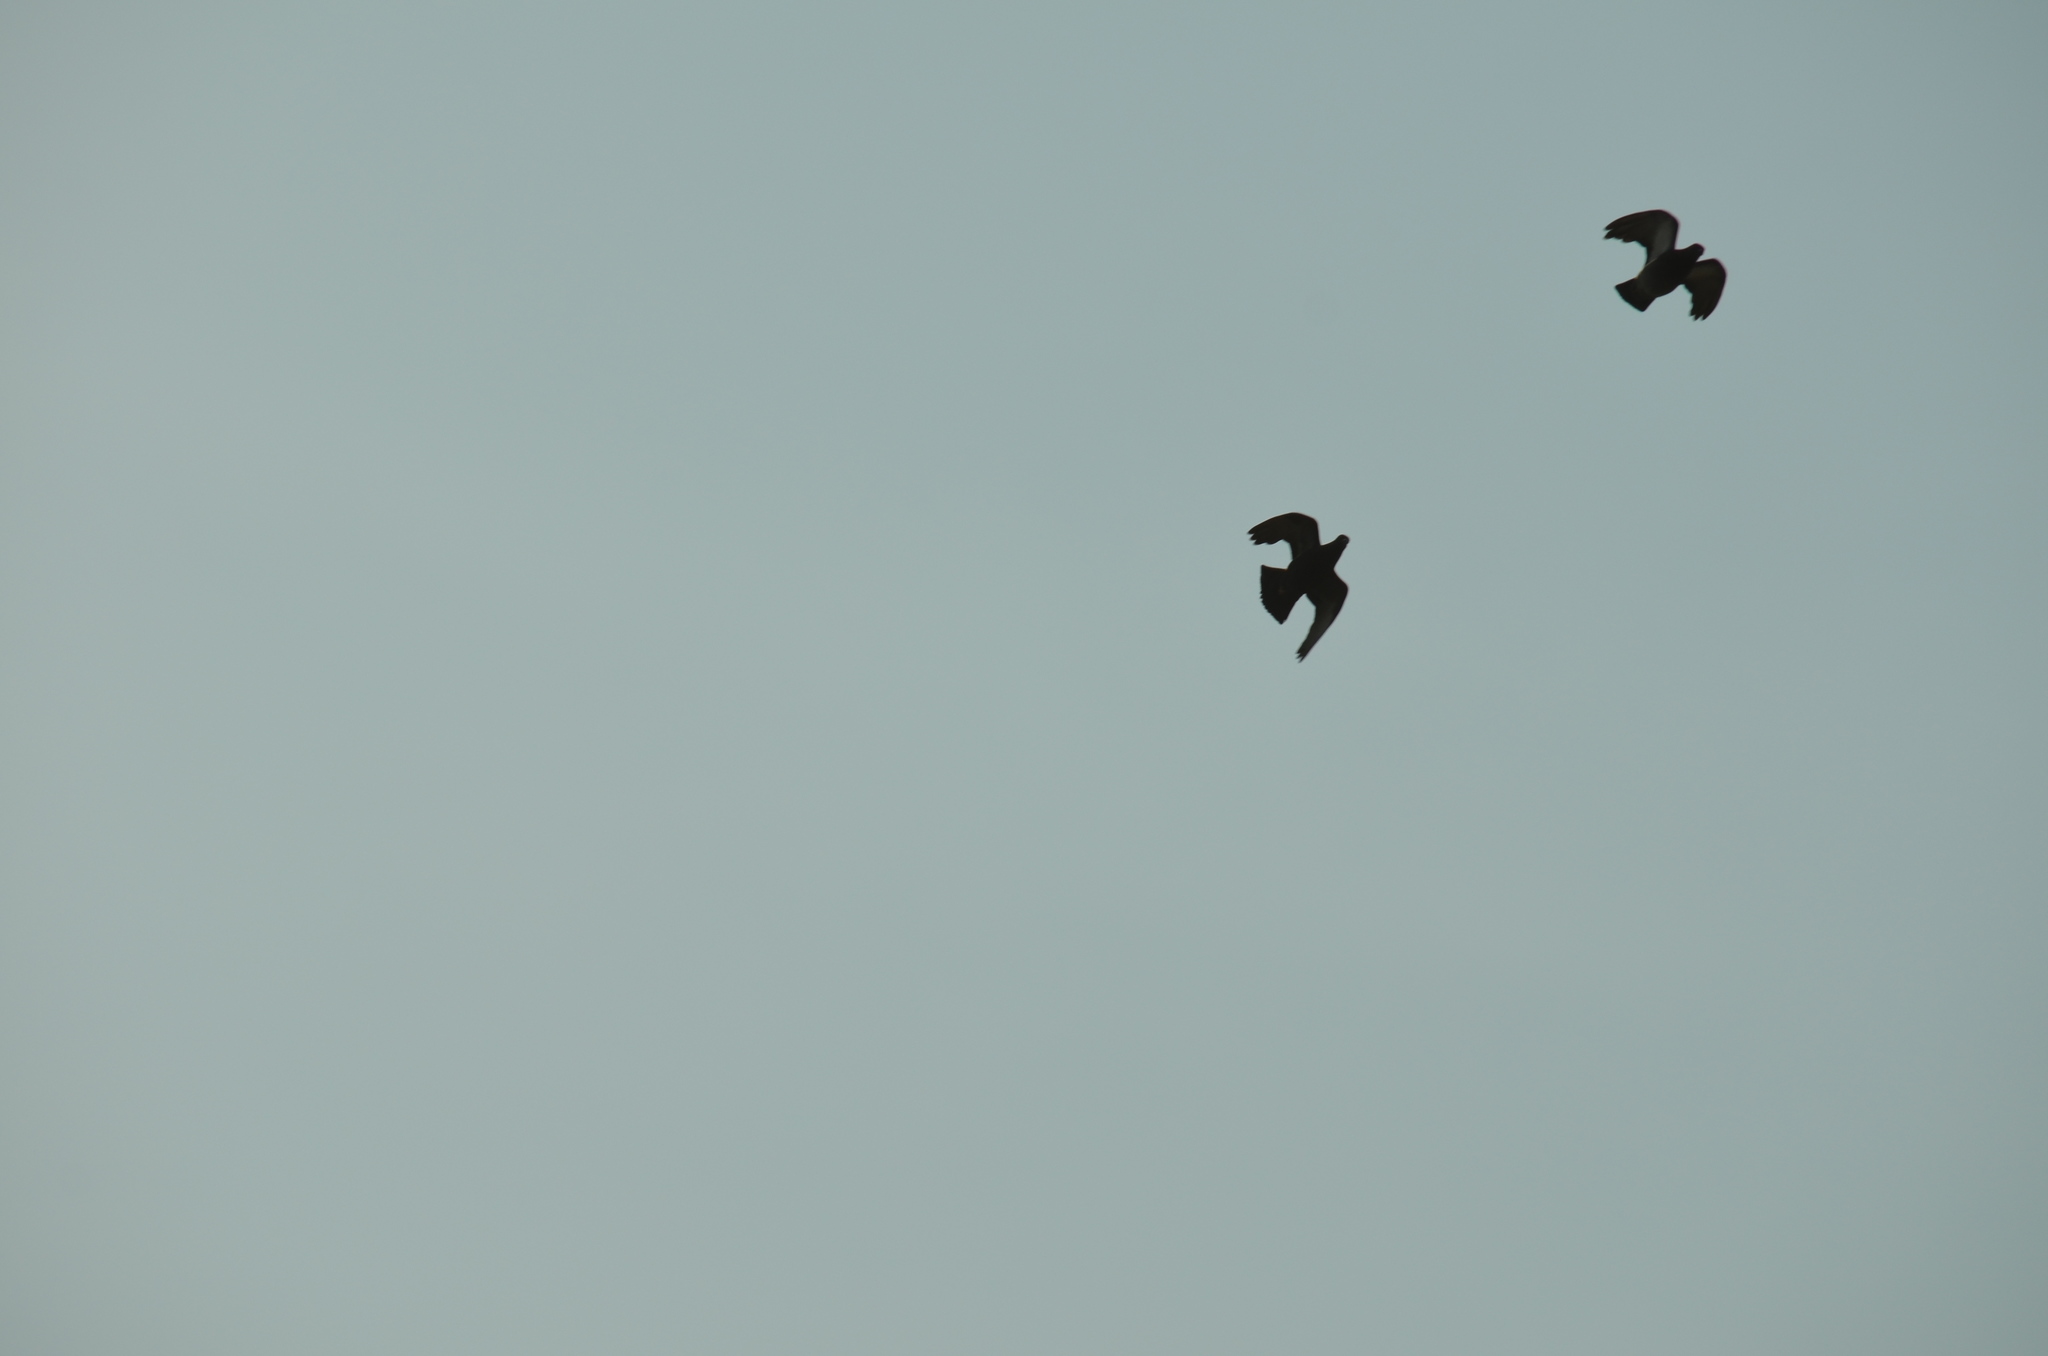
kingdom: Animalia
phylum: Chordata
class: Aves
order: Columbiformes
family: Columbidae
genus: Columba
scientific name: Columba livia
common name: Rock pigeon
